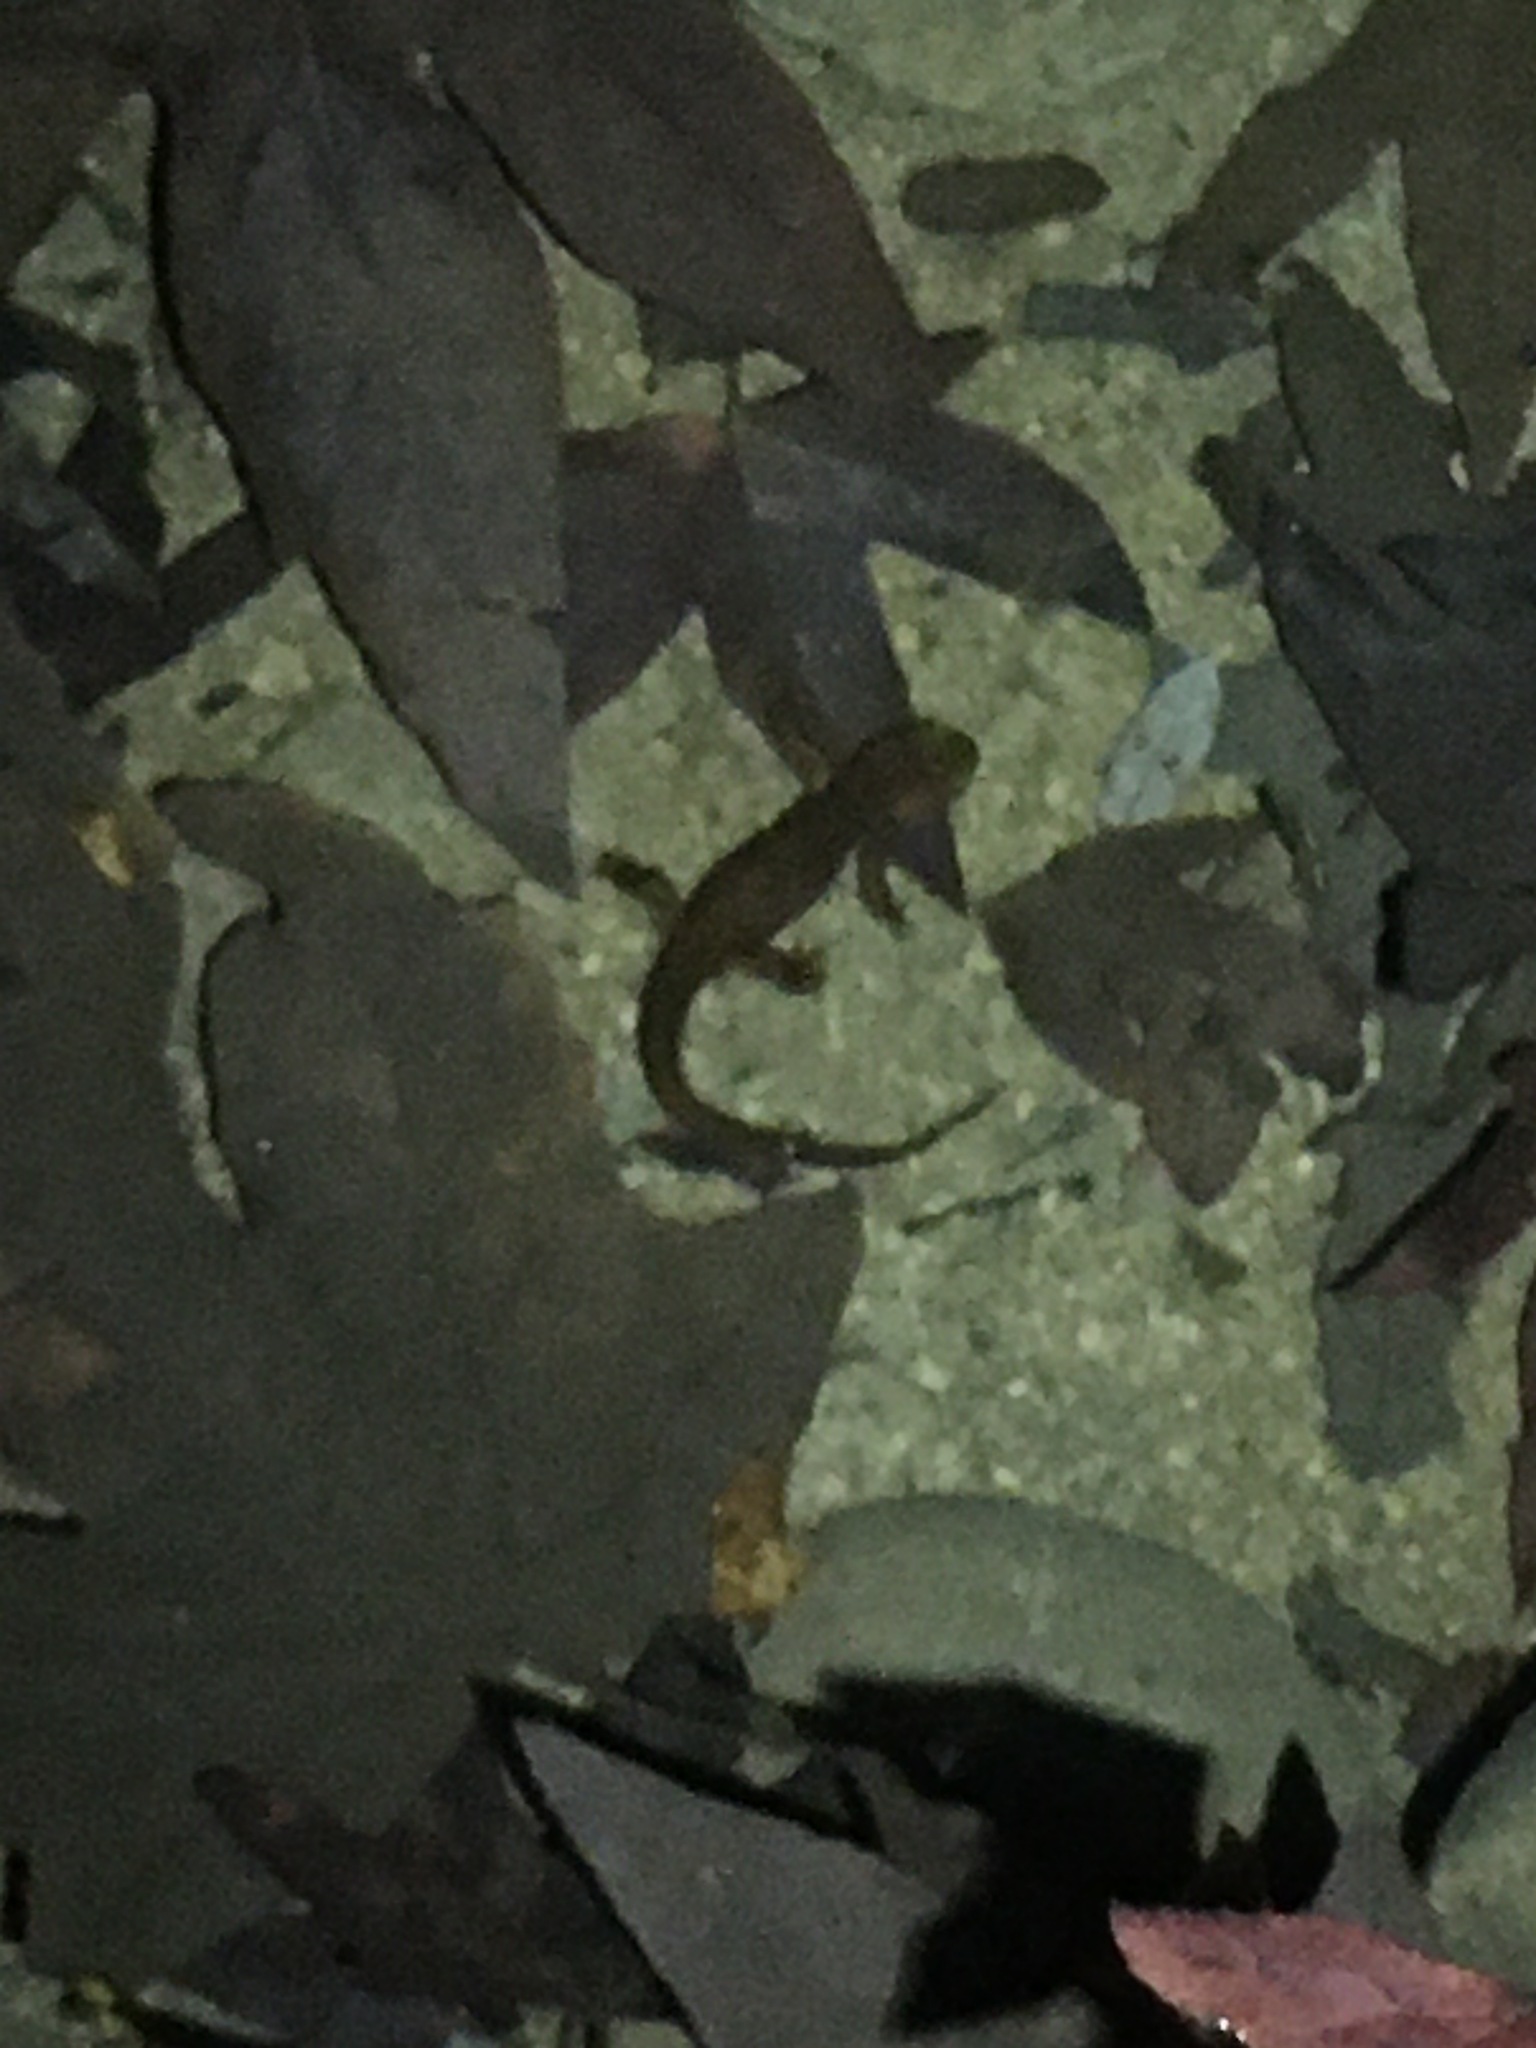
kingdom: Animalia
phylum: Chordata
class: Amphibia
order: Caudata
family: Salamandridae
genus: Taricha
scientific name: Taricha torosa
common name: California newt
